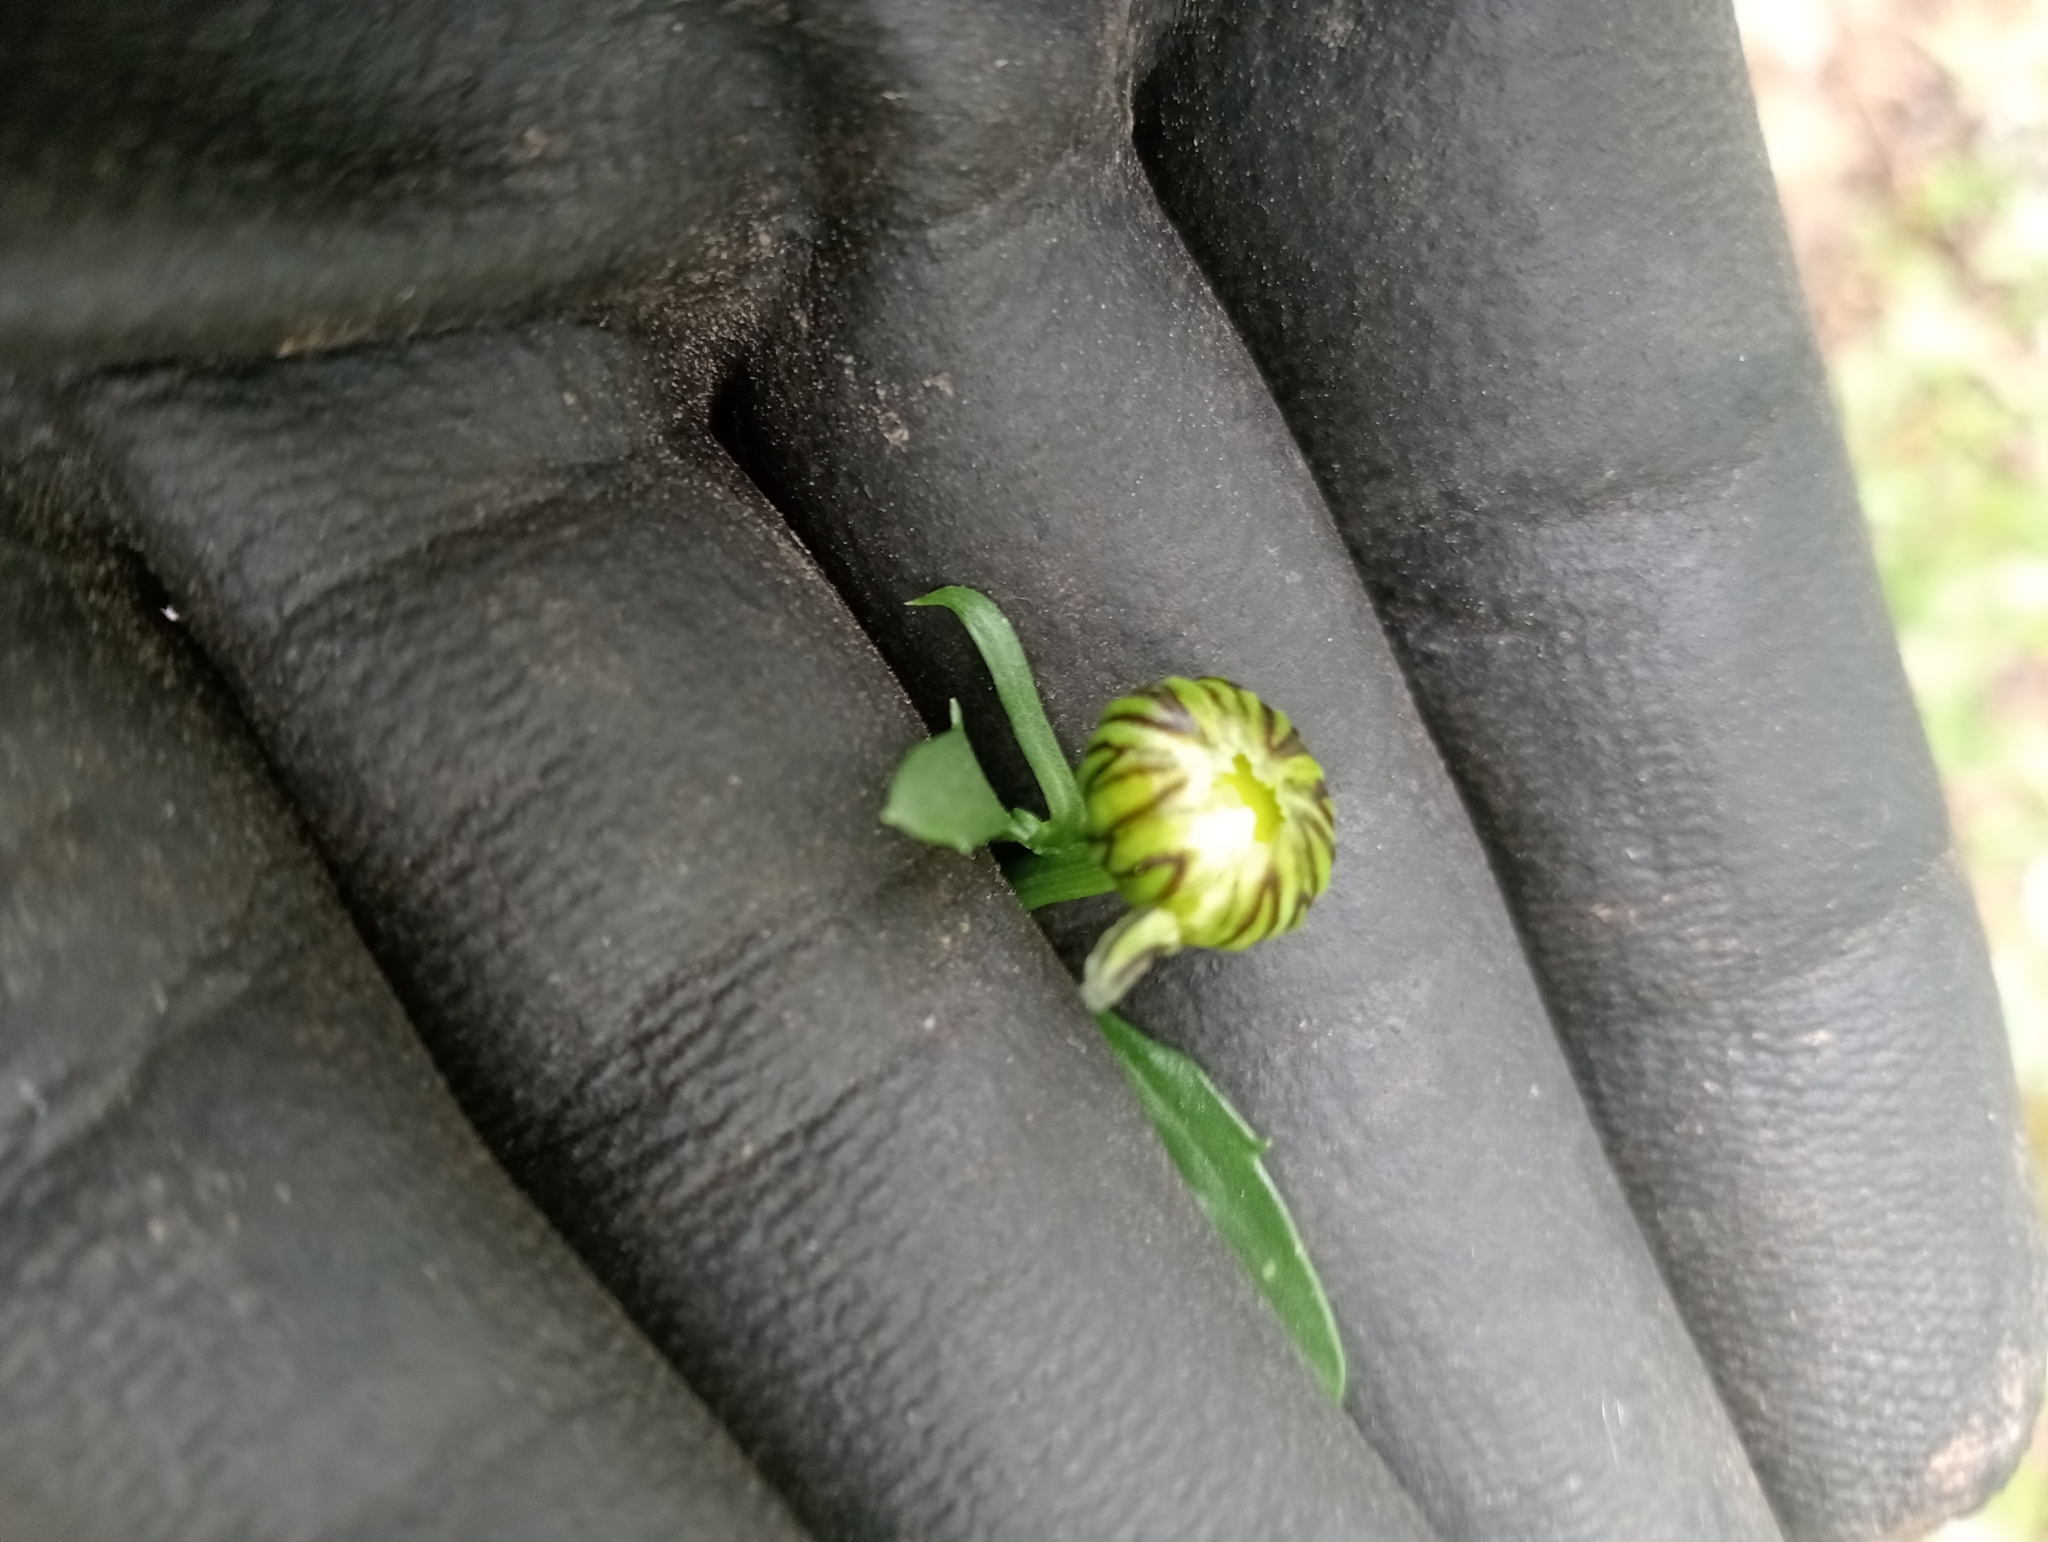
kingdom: Plantae
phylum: Tracheophyta
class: Magnoliopsida
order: Asterales
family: Asteraceae
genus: Leucanthemum
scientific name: Leucanthemum vulgare
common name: Oxeye daisy
